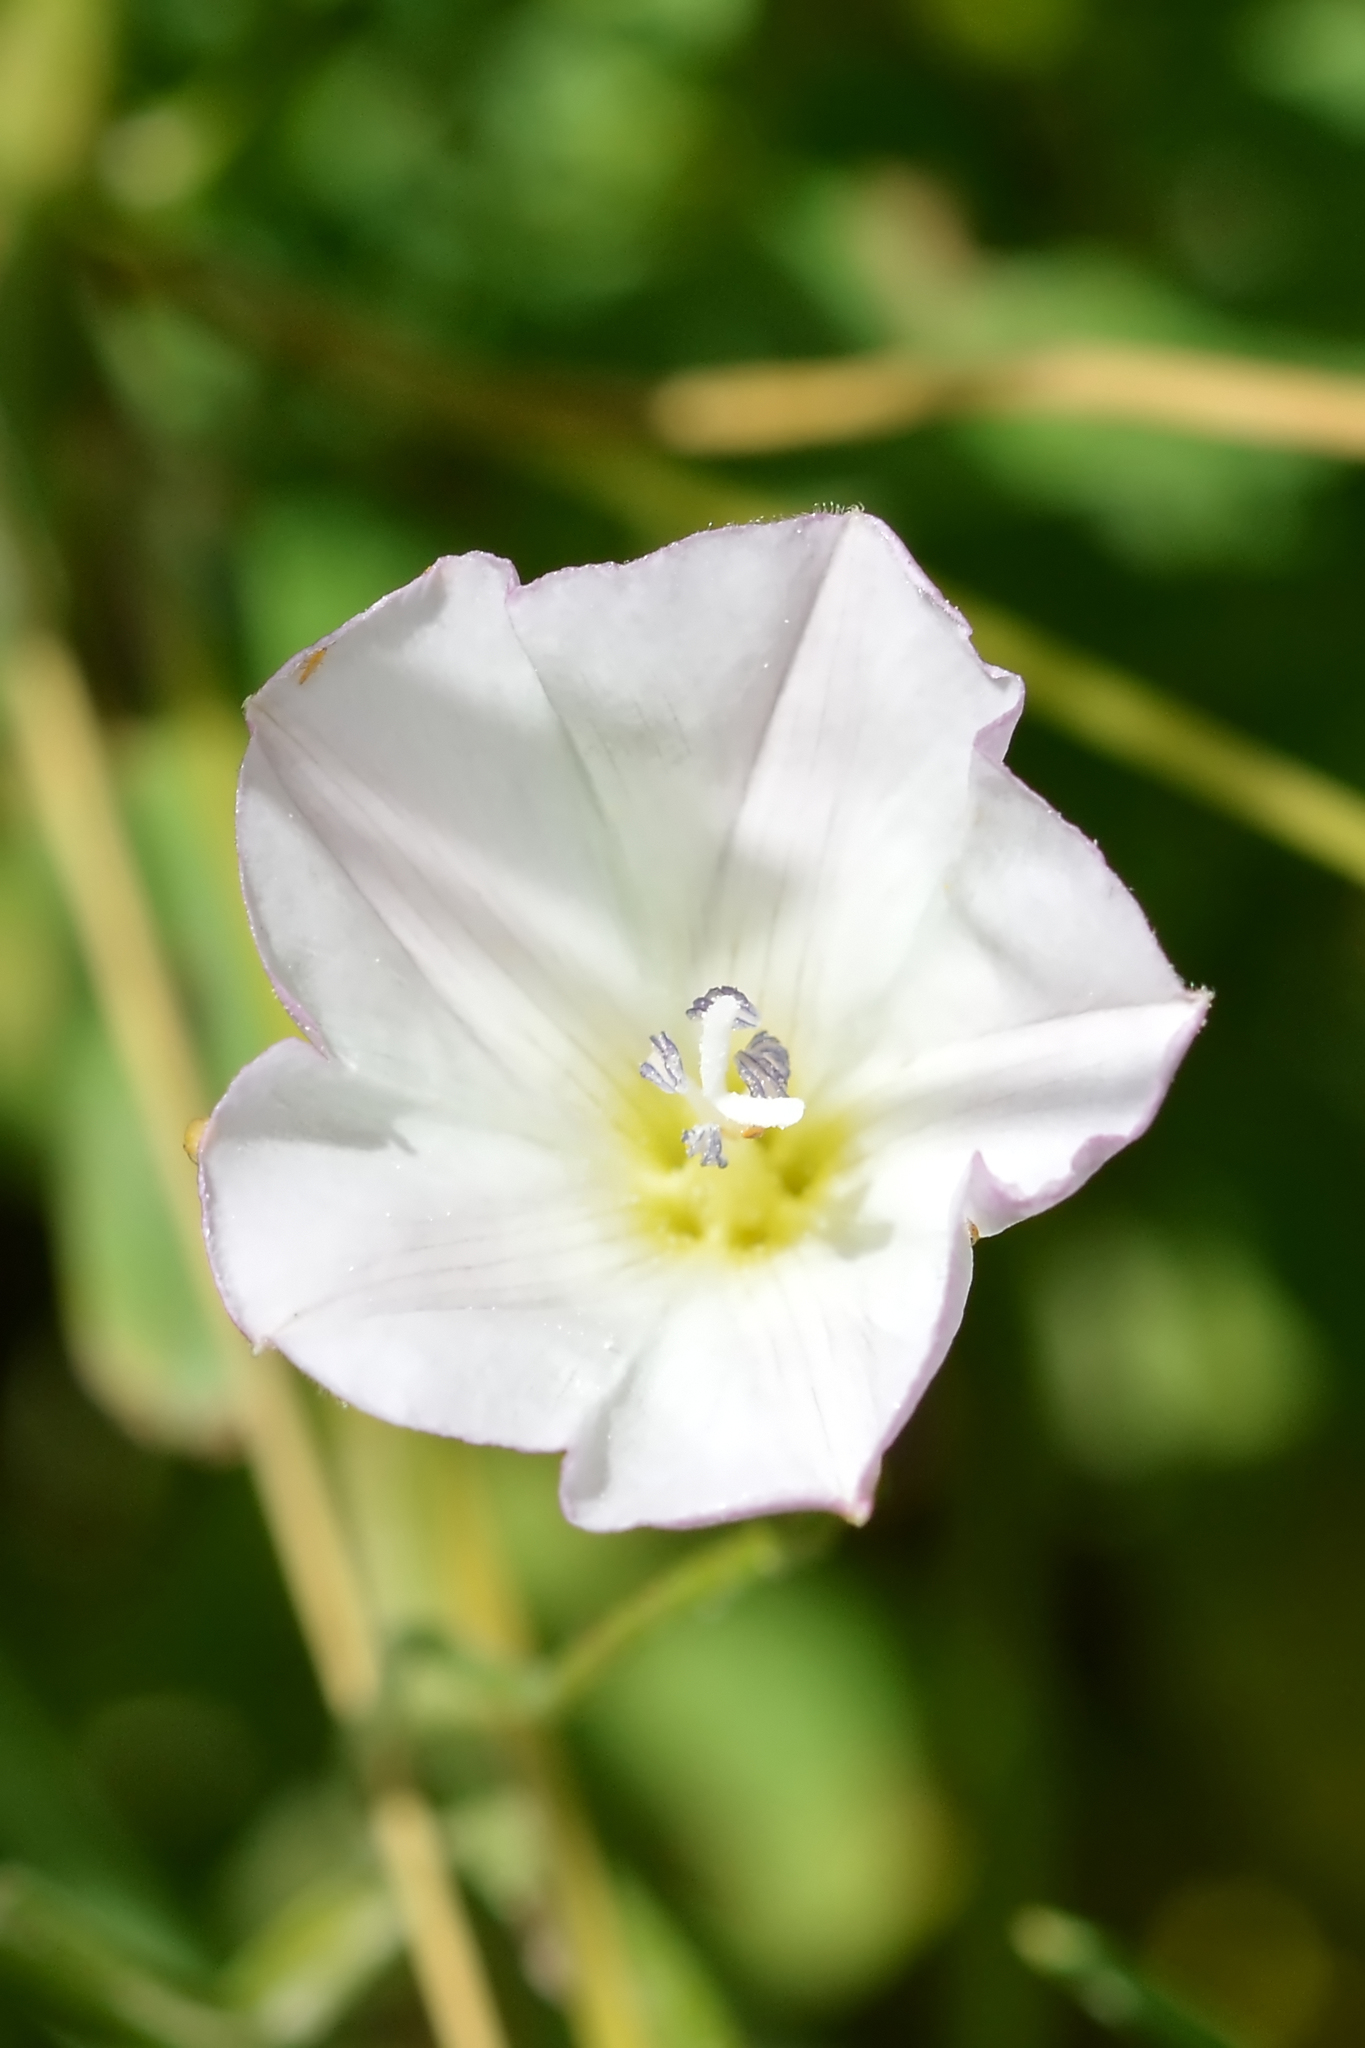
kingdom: Plantae
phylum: Tracheophyta
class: Magnoliopsida
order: Solanales
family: Convolvulaceae
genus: Convolvulus
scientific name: Convolvulus arvensis
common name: Field bindweed
